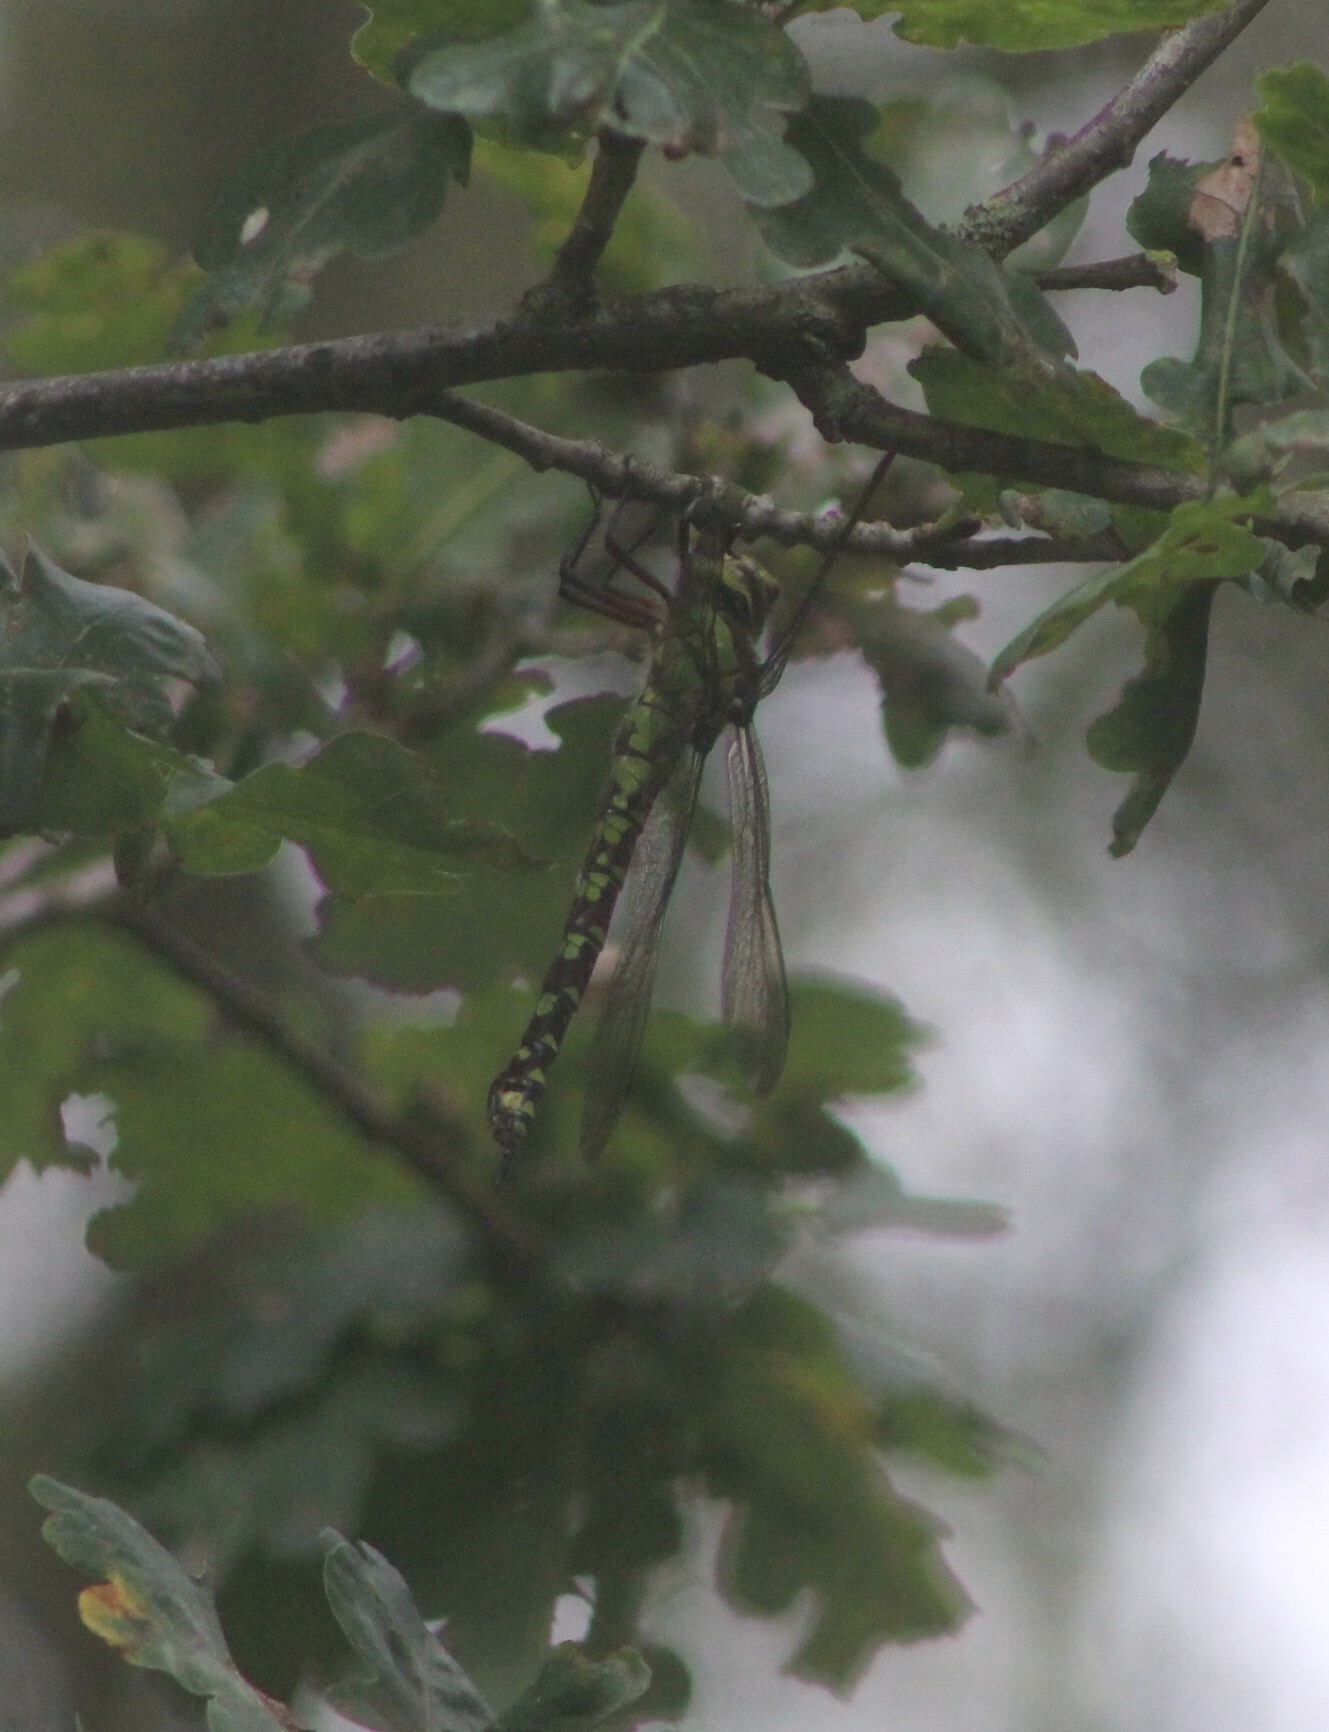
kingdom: Animalia
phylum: Arthropoda
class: Insecta
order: Odonata
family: Aeshnidae
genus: Aeshna
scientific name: Aeshna cyanea
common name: Southern hawker
